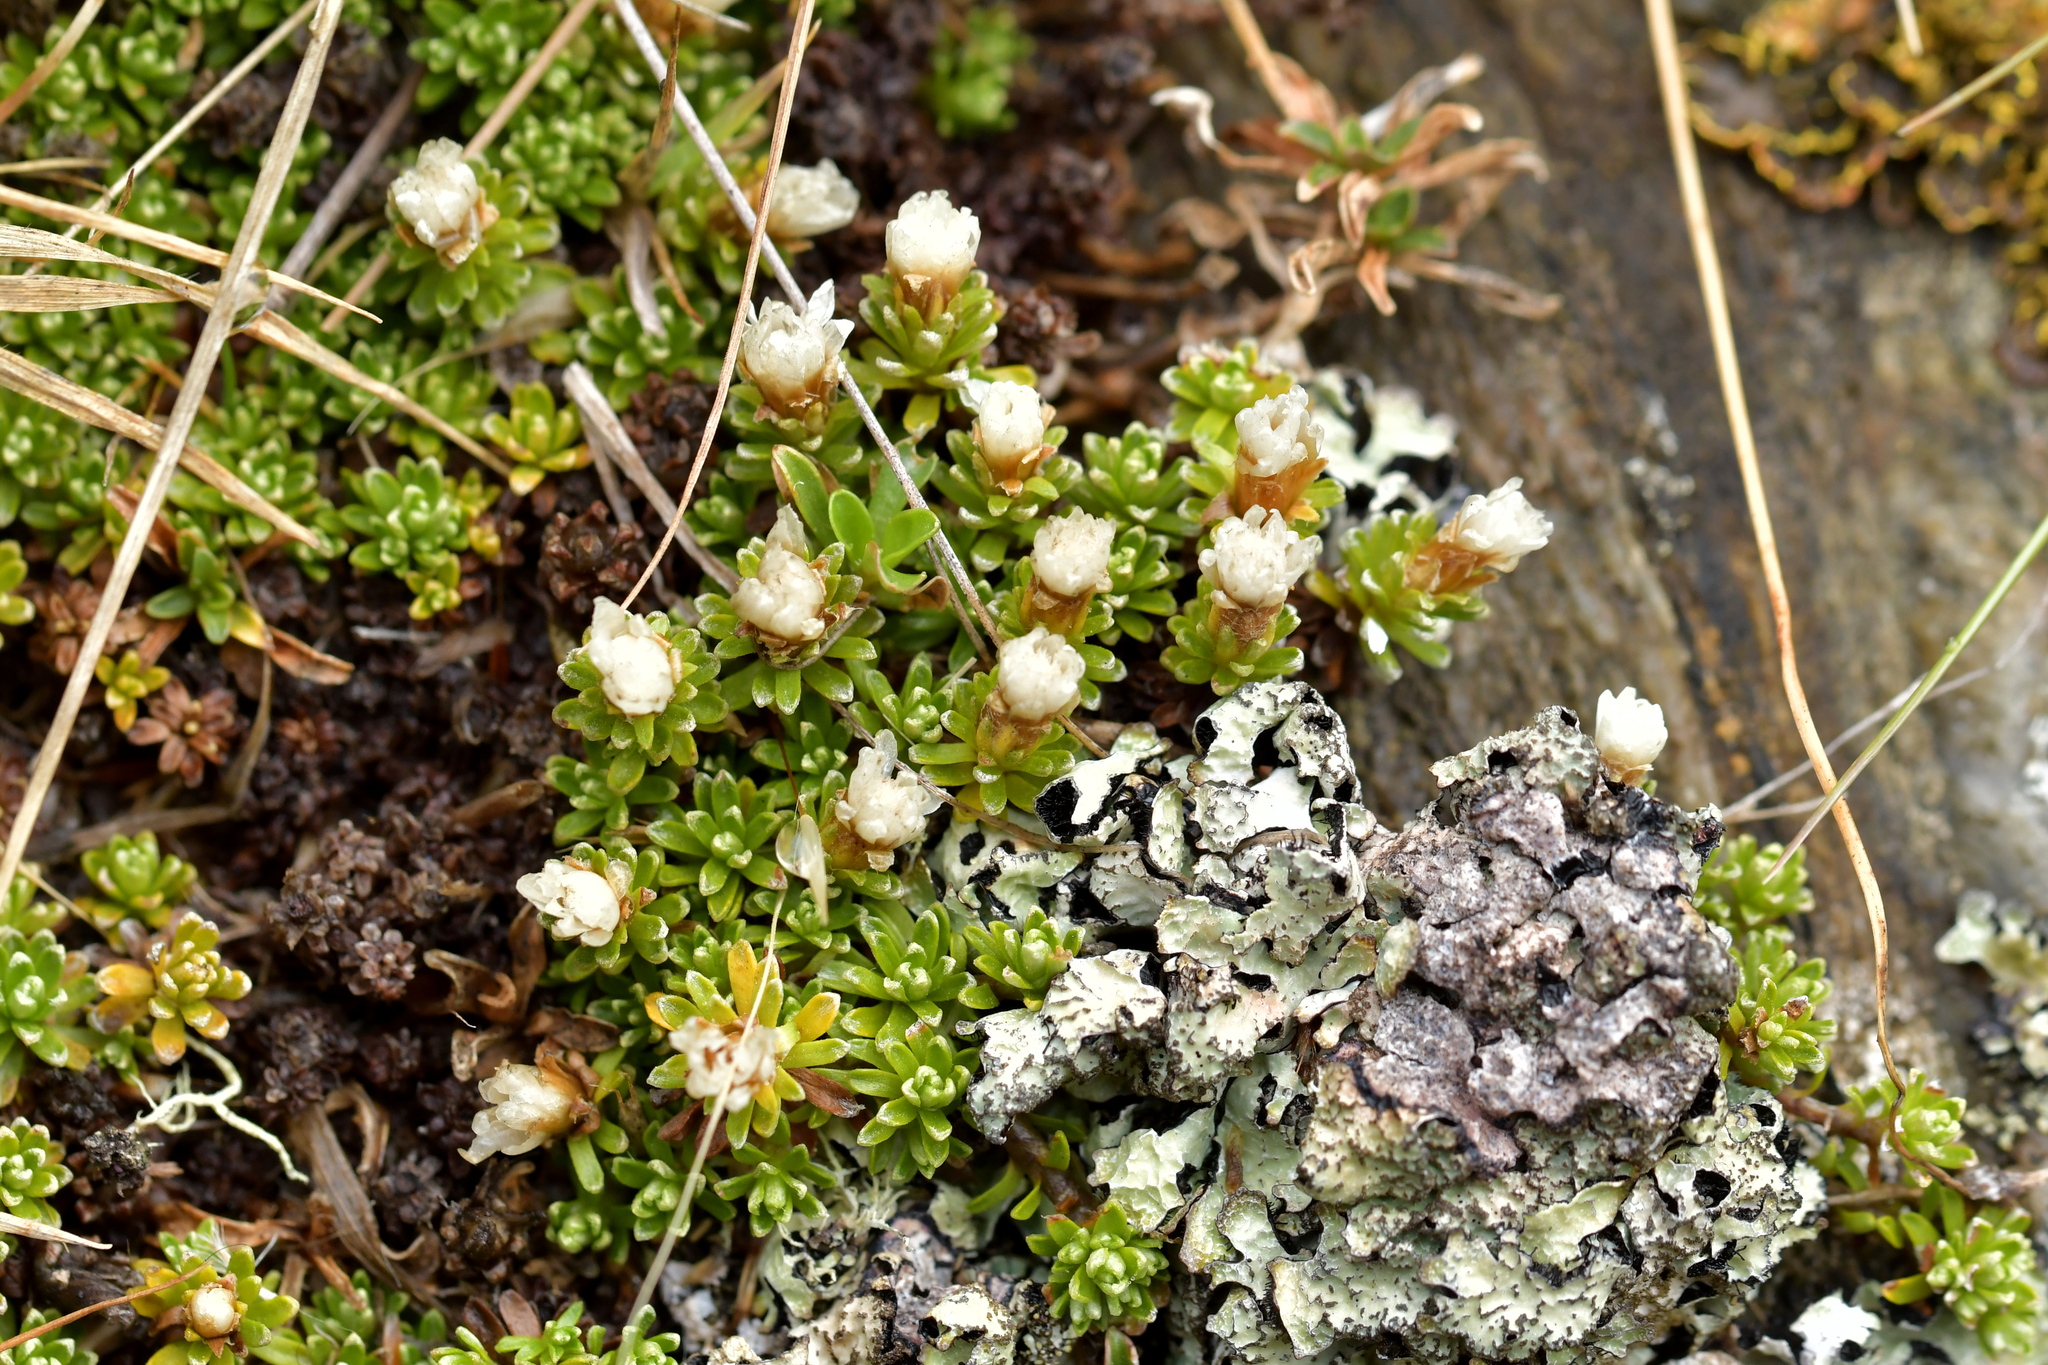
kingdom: Plantae
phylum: Tracheophyta
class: Magnoliopsida
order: Asterales
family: Asteraceae
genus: Raoulia
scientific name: Raoulia subsericea
